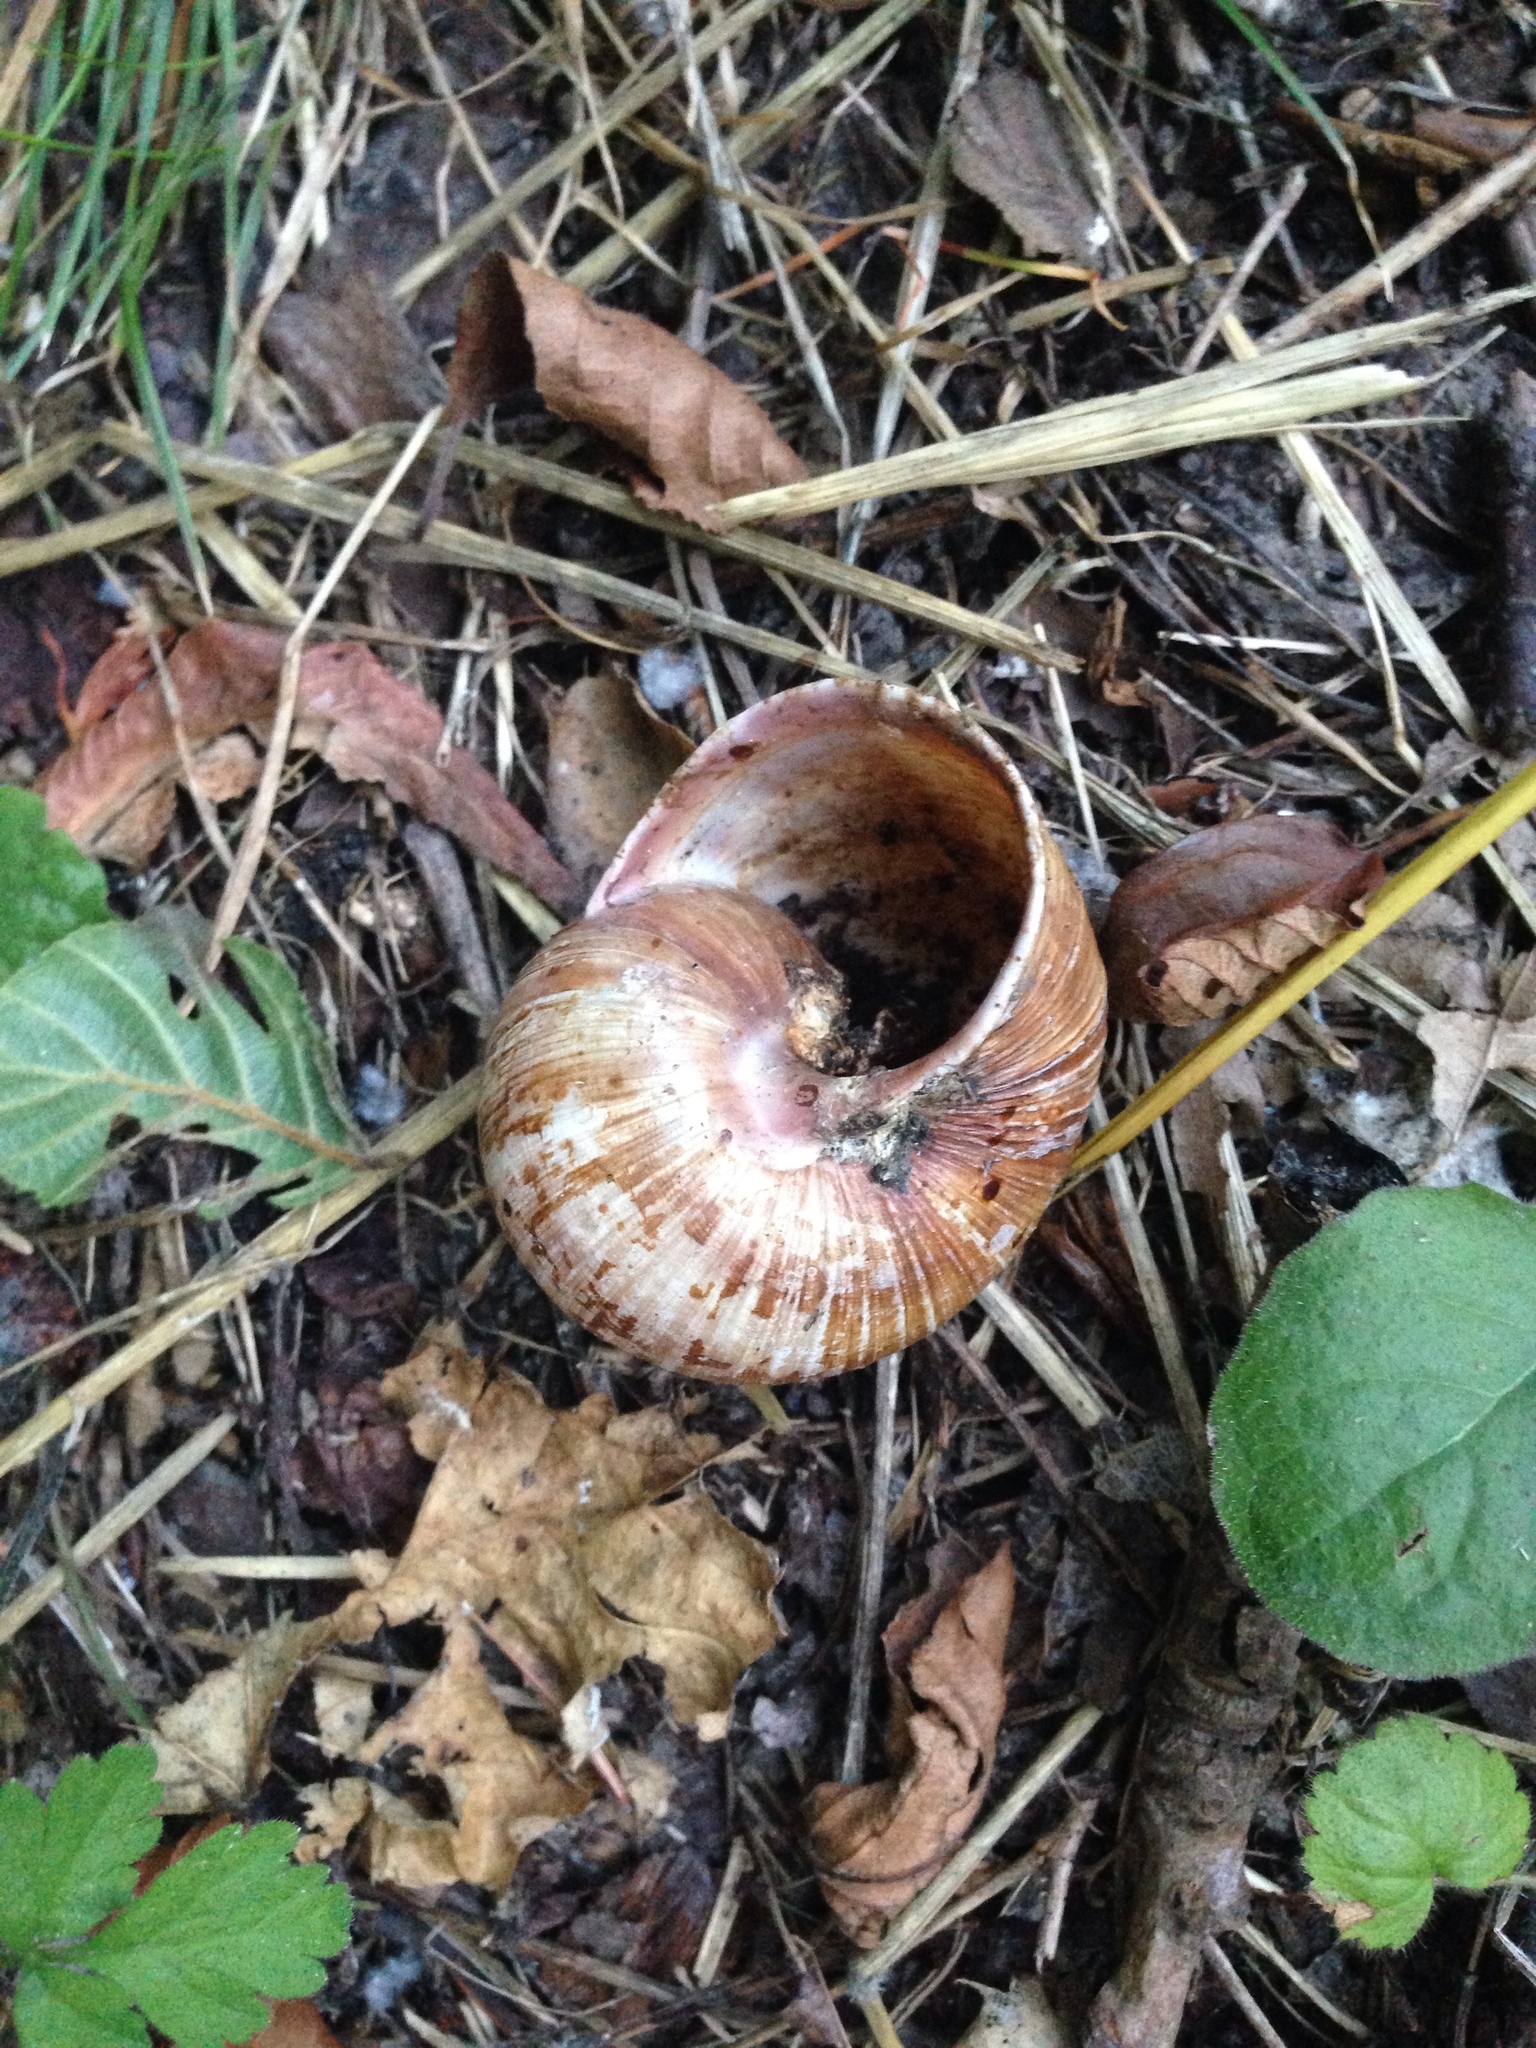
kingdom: Animalia
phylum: Mollusca
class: Gastropoda
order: Stylommatophora
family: Helicidae
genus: Helix
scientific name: Helix pomatia
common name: Roman snail
